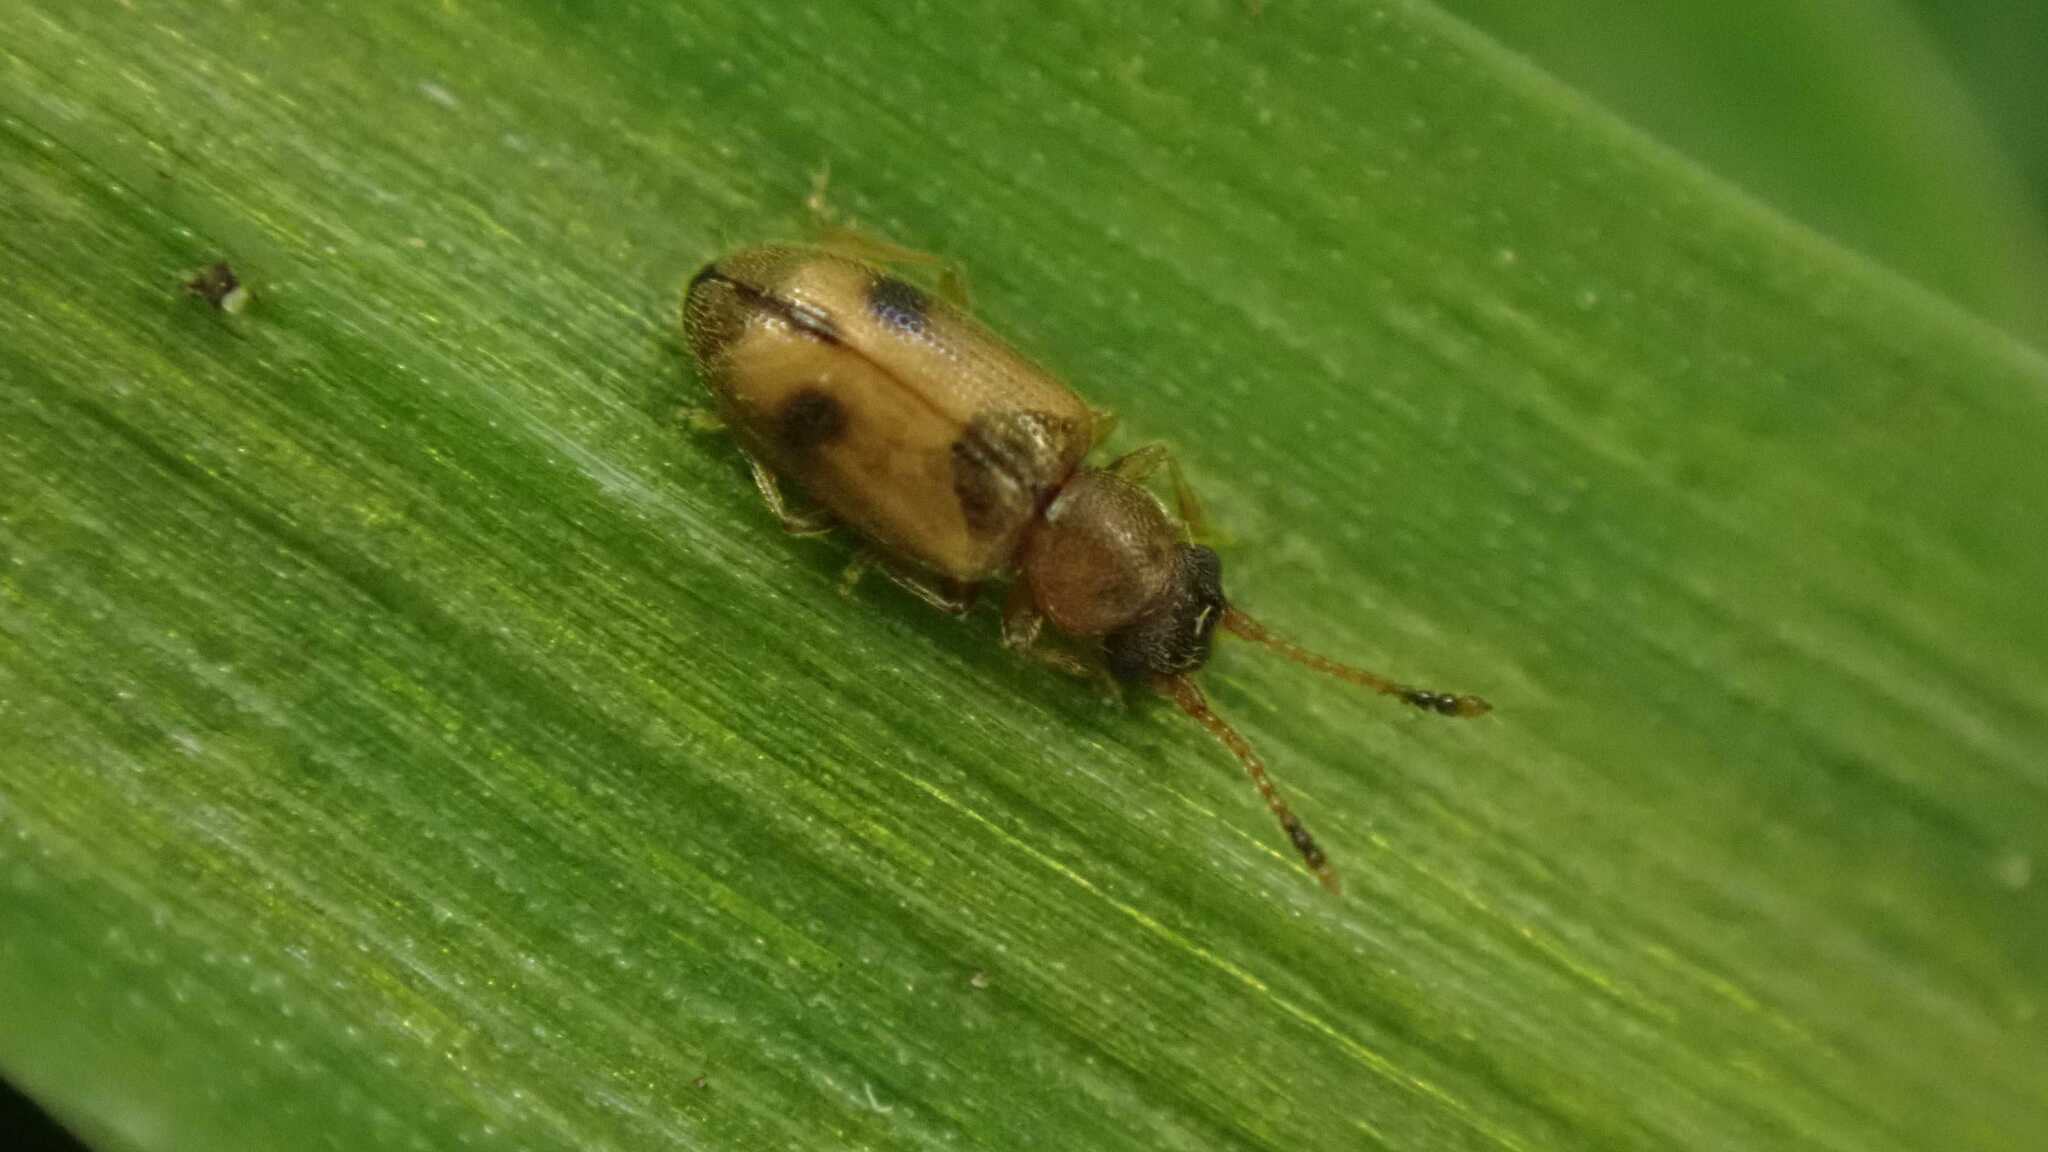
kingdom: Animalia
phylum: Arthropoda
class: Insecta
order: Coleoptera
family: Silvanidae
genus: Psammoecus
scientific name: Psammoecus bipunctatus
